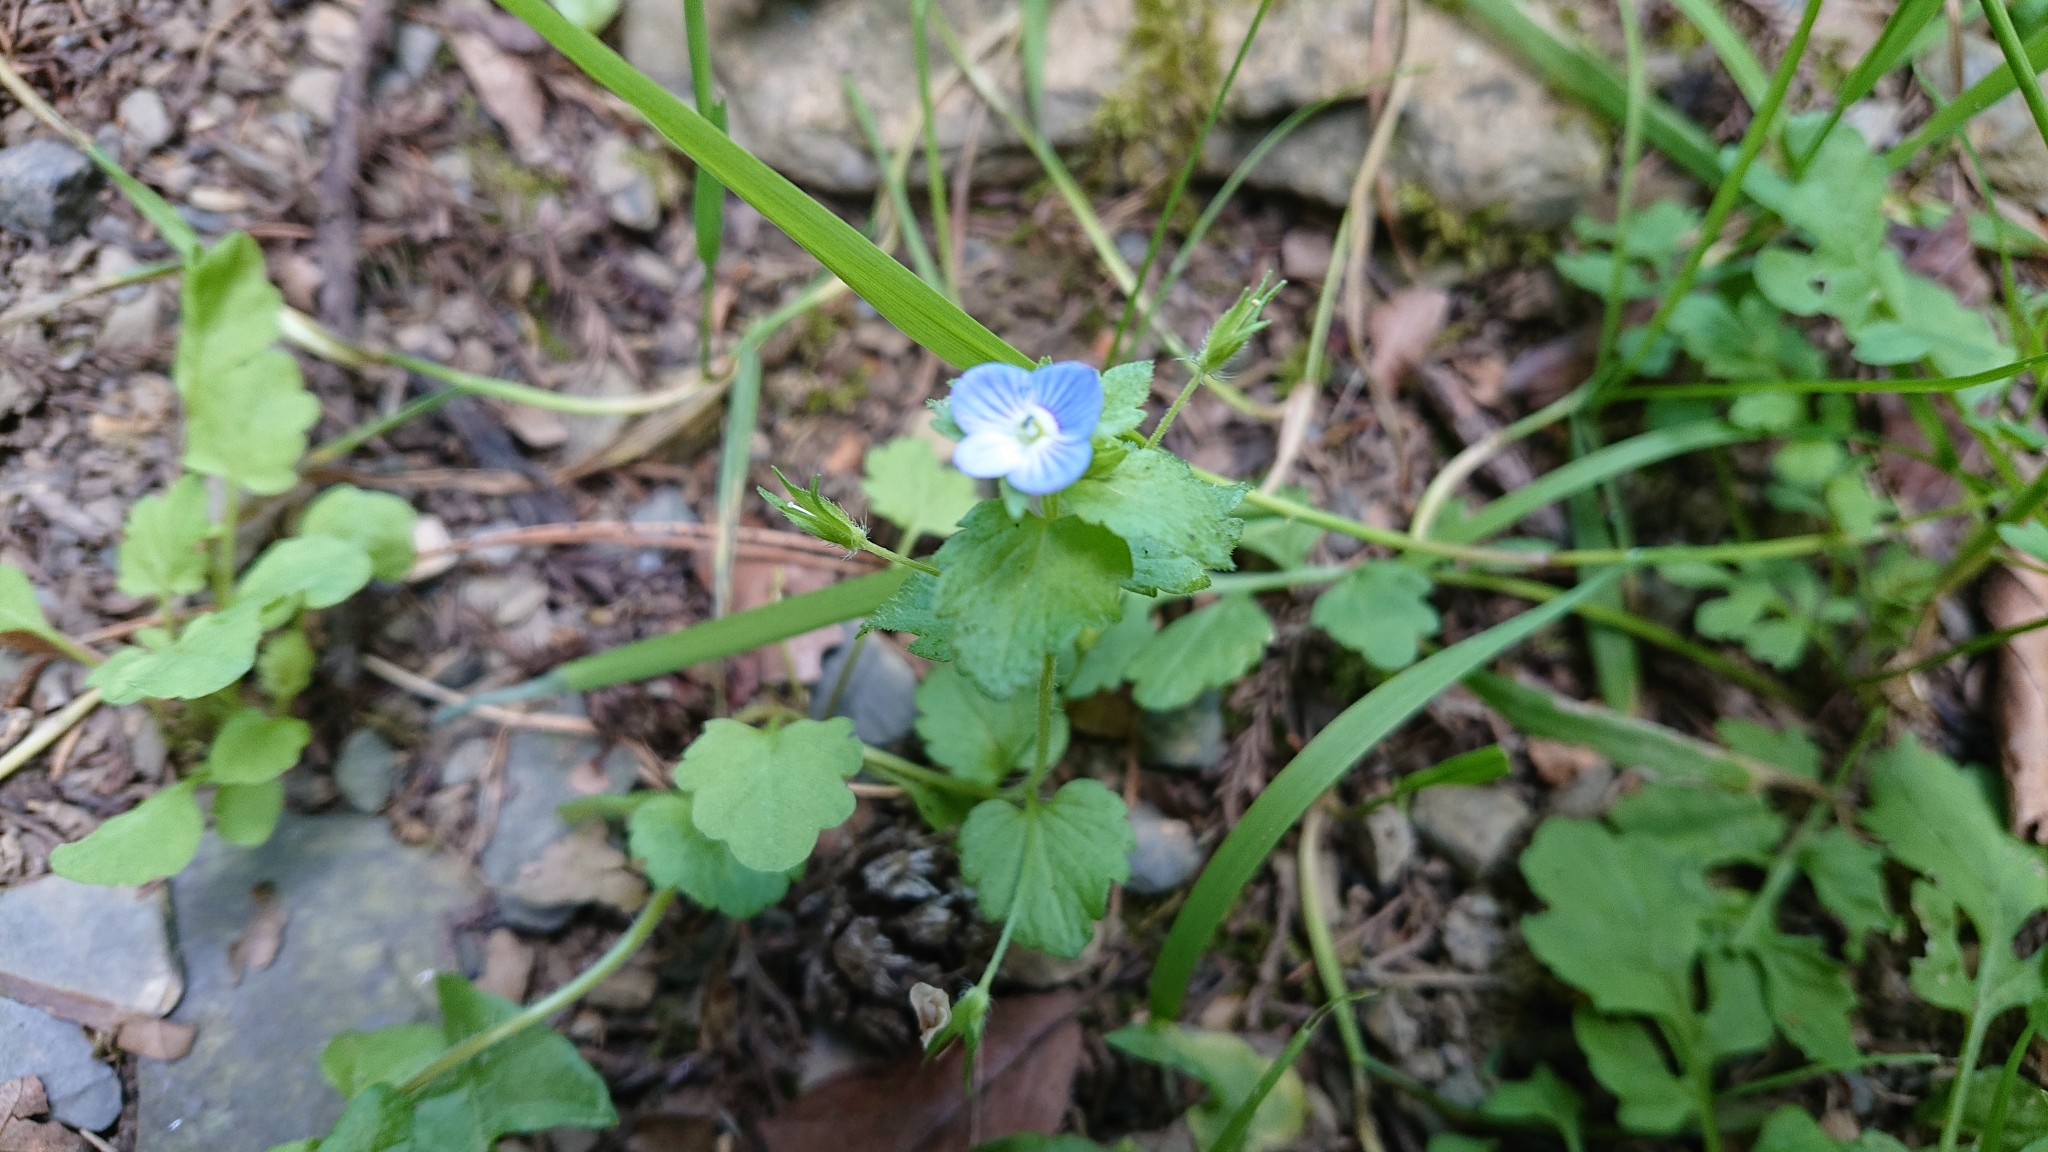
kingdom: Plantae
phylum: Tracheophyta
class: Magnoliopsida
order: Lamiales
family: Plantaginaceae
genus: Veronica
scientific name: Veronica persica
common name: Common field-speedwell
